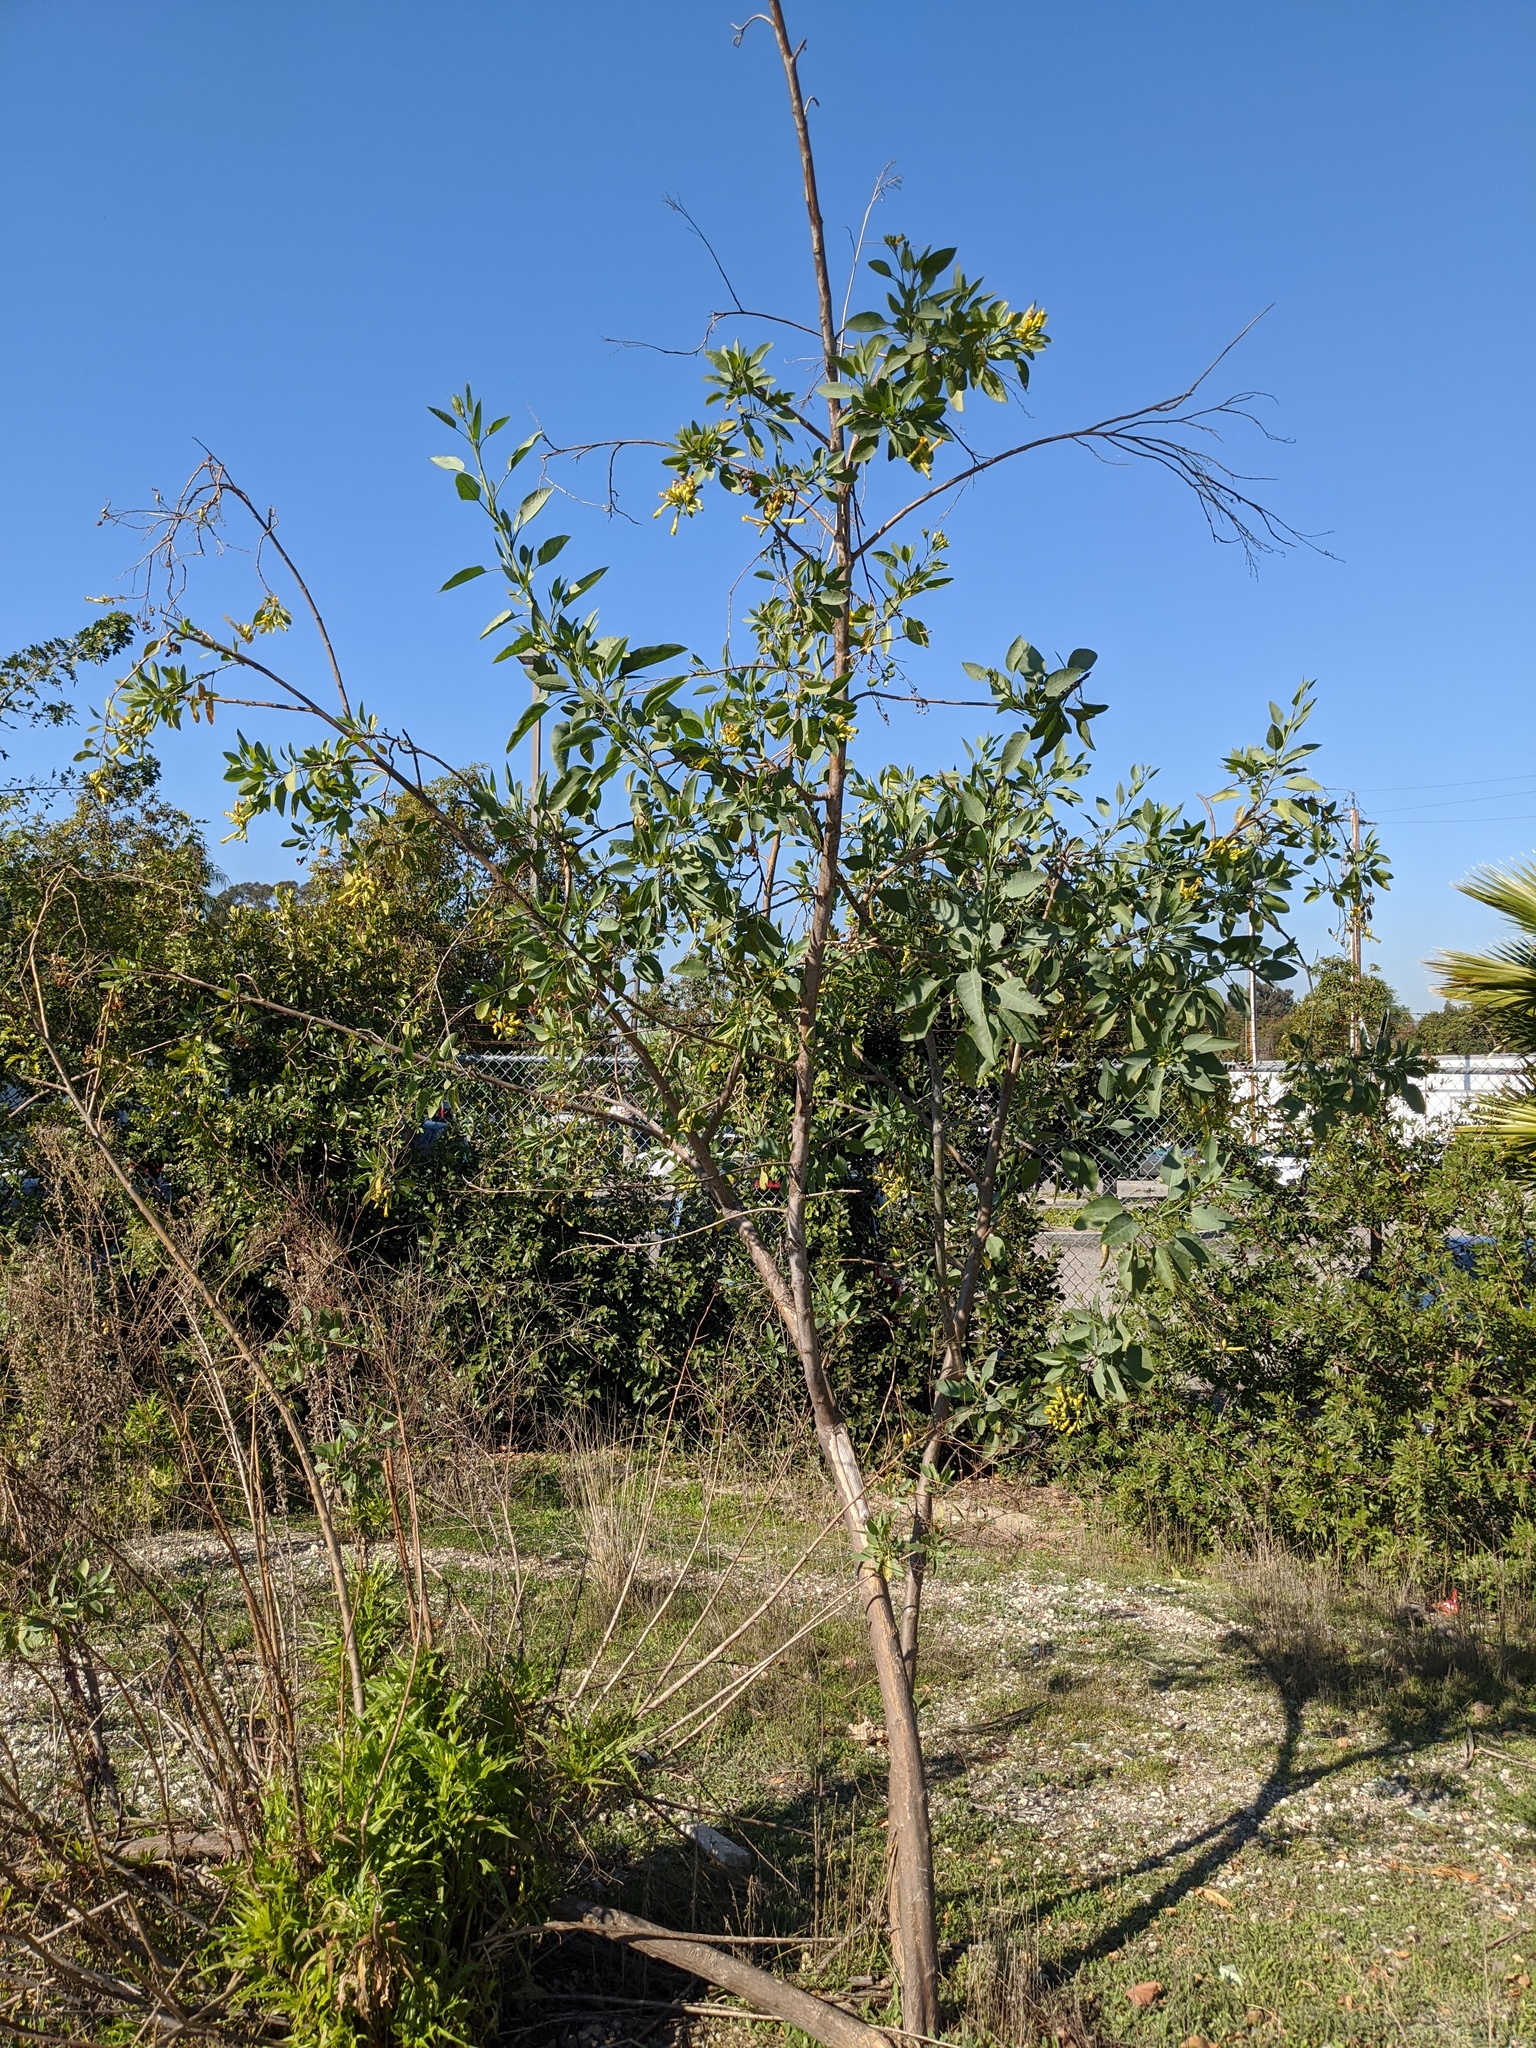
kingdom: Plantae
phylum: Tracheophyta
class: Magnoliopsida
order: Solanales
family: Solanaceae
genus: Nicotiana
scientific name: Nicotiana glauca
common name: Tree tobacco
